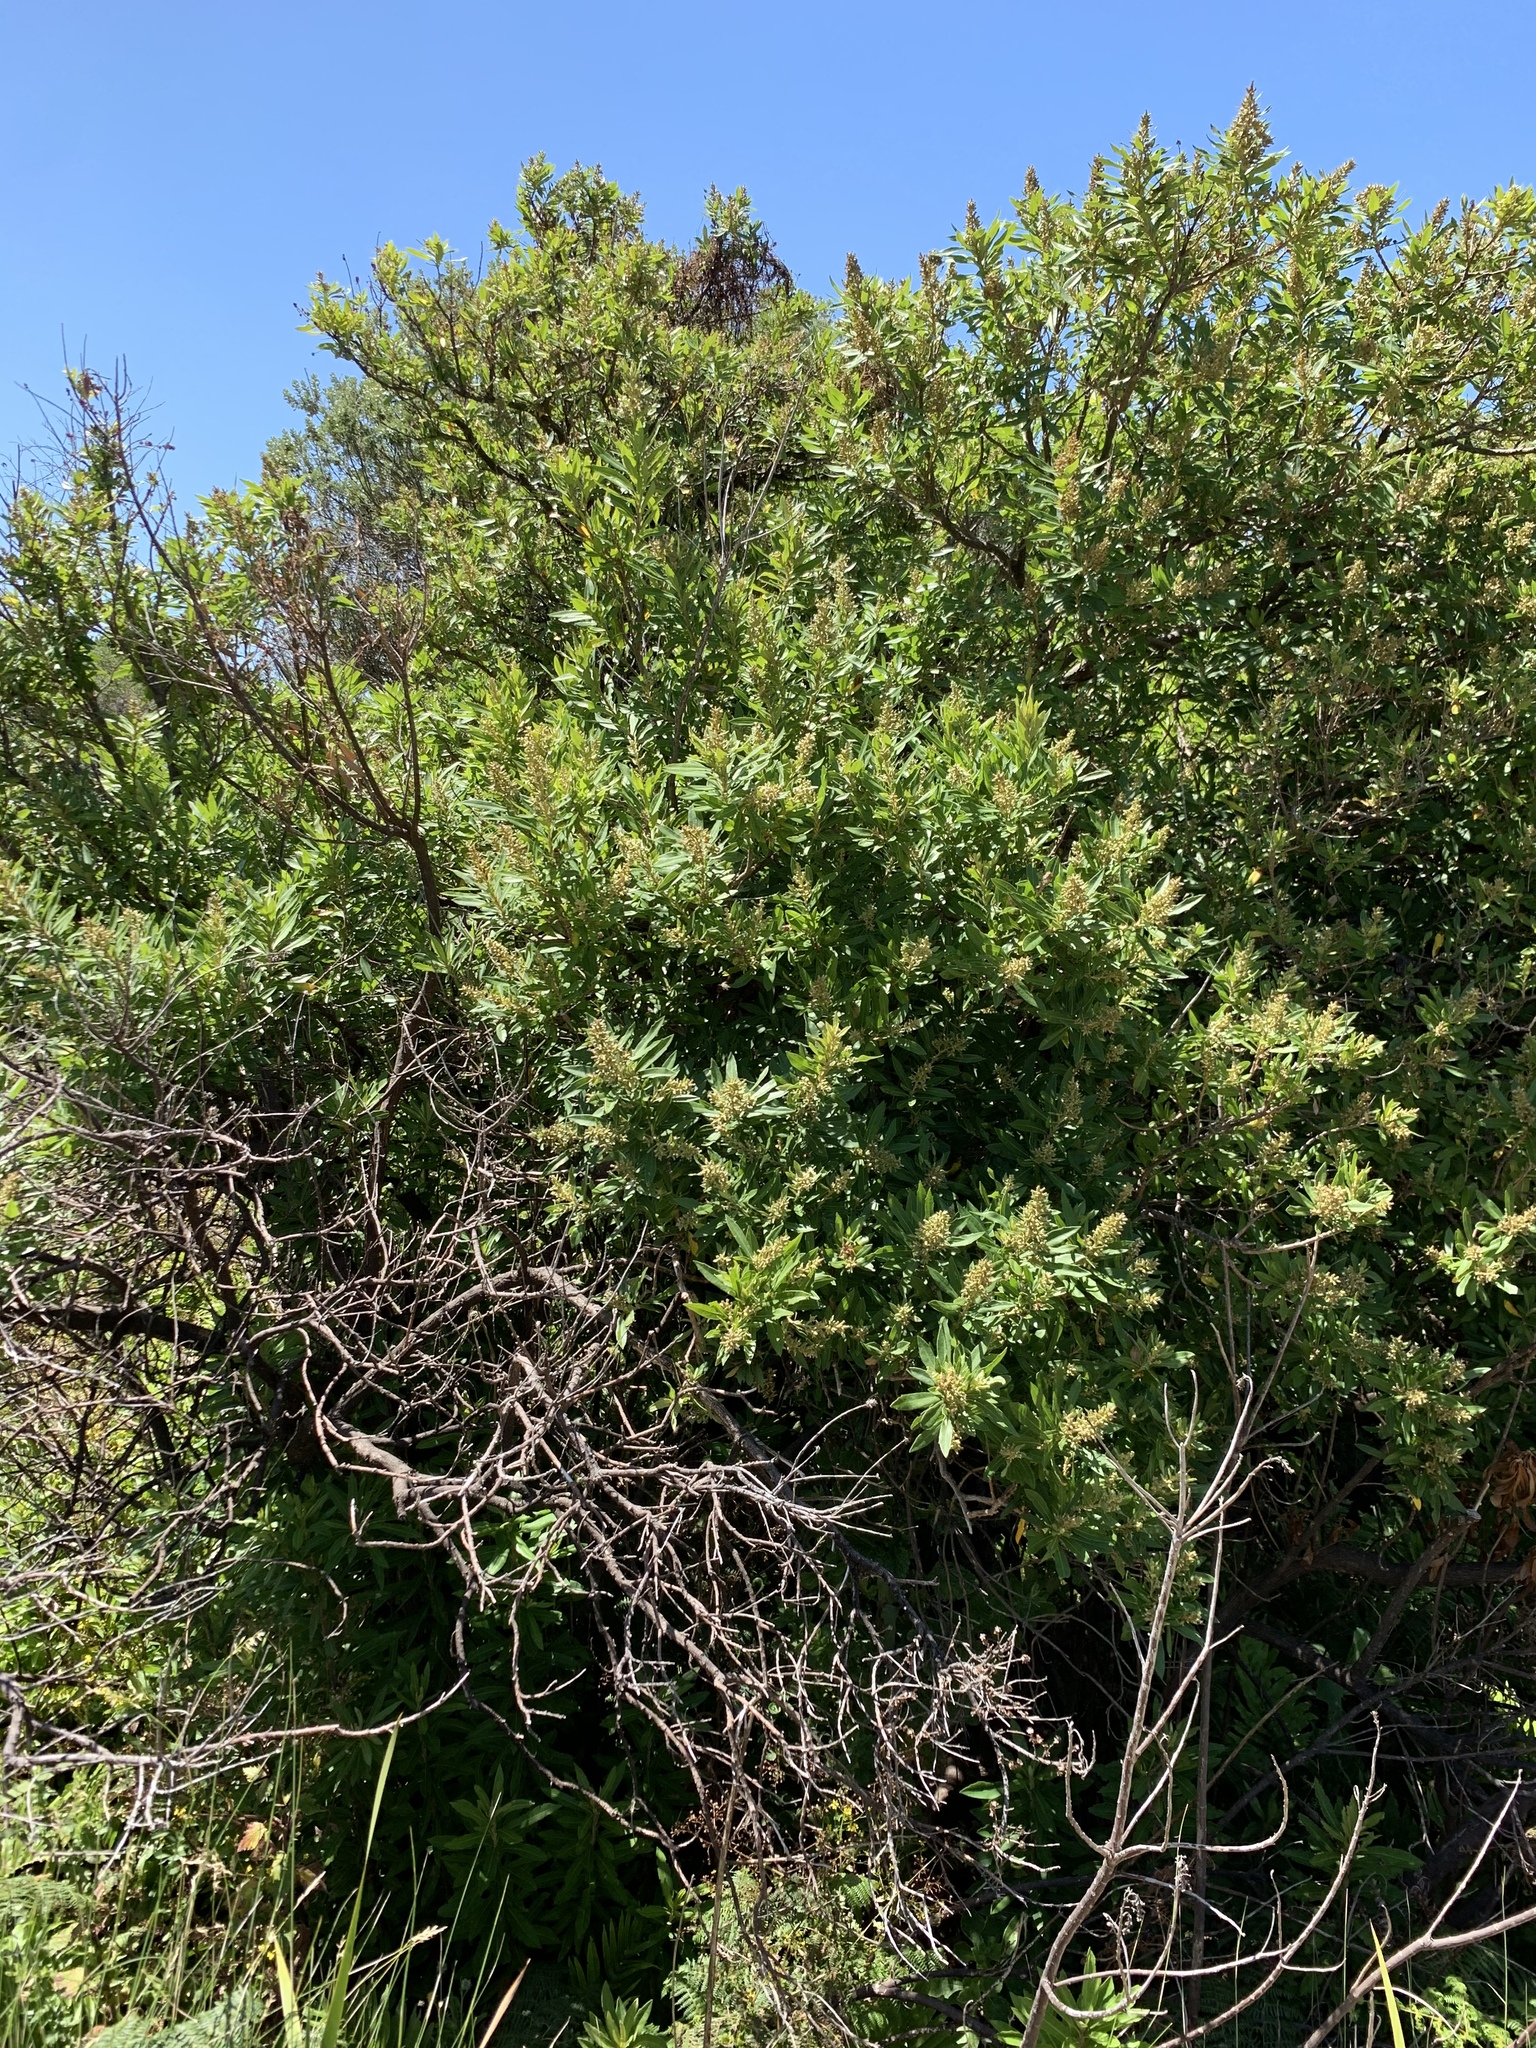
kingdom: Plantae
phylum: Tracheophyta
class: Magnoliopsida
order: Asterales
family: Asteraceae
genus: Brachylaena
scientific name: Brachylaena neriifolia
